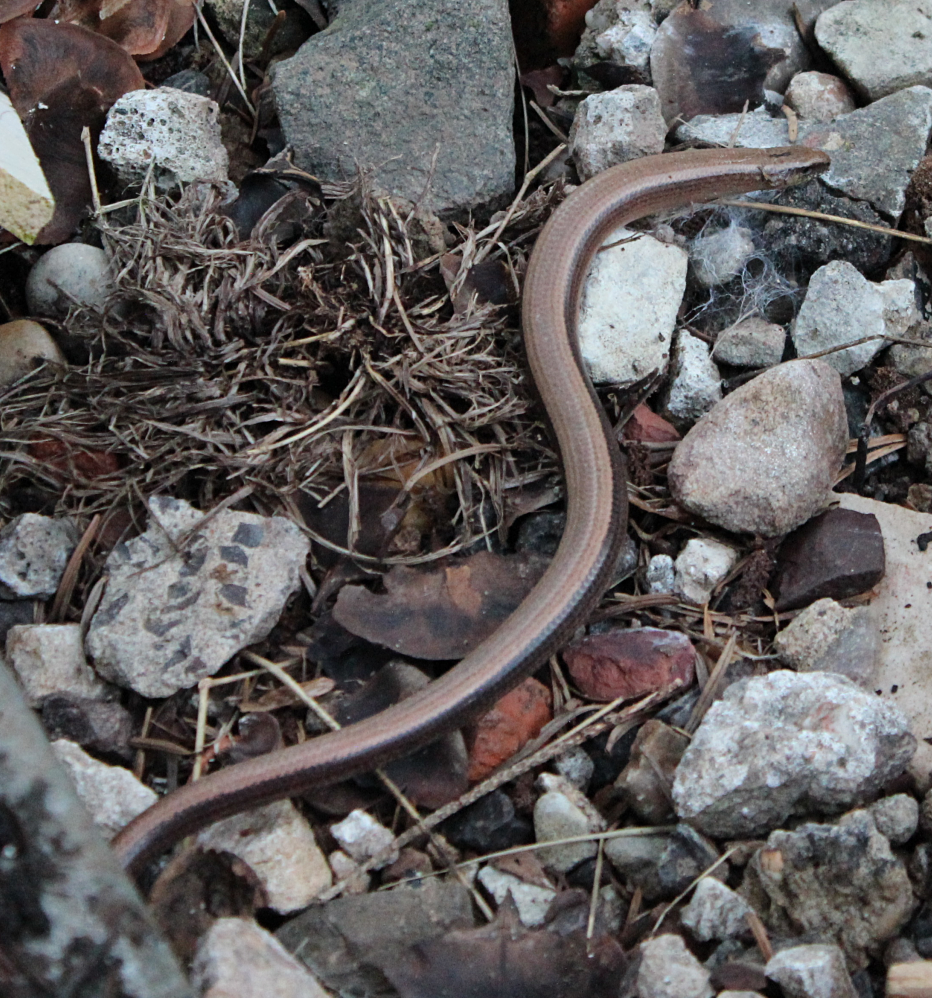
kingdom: Animalia
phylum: Chordata
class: Squamata
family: Anguidae
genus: Anguis
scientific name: Anguis fragilis
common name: Slow worm
